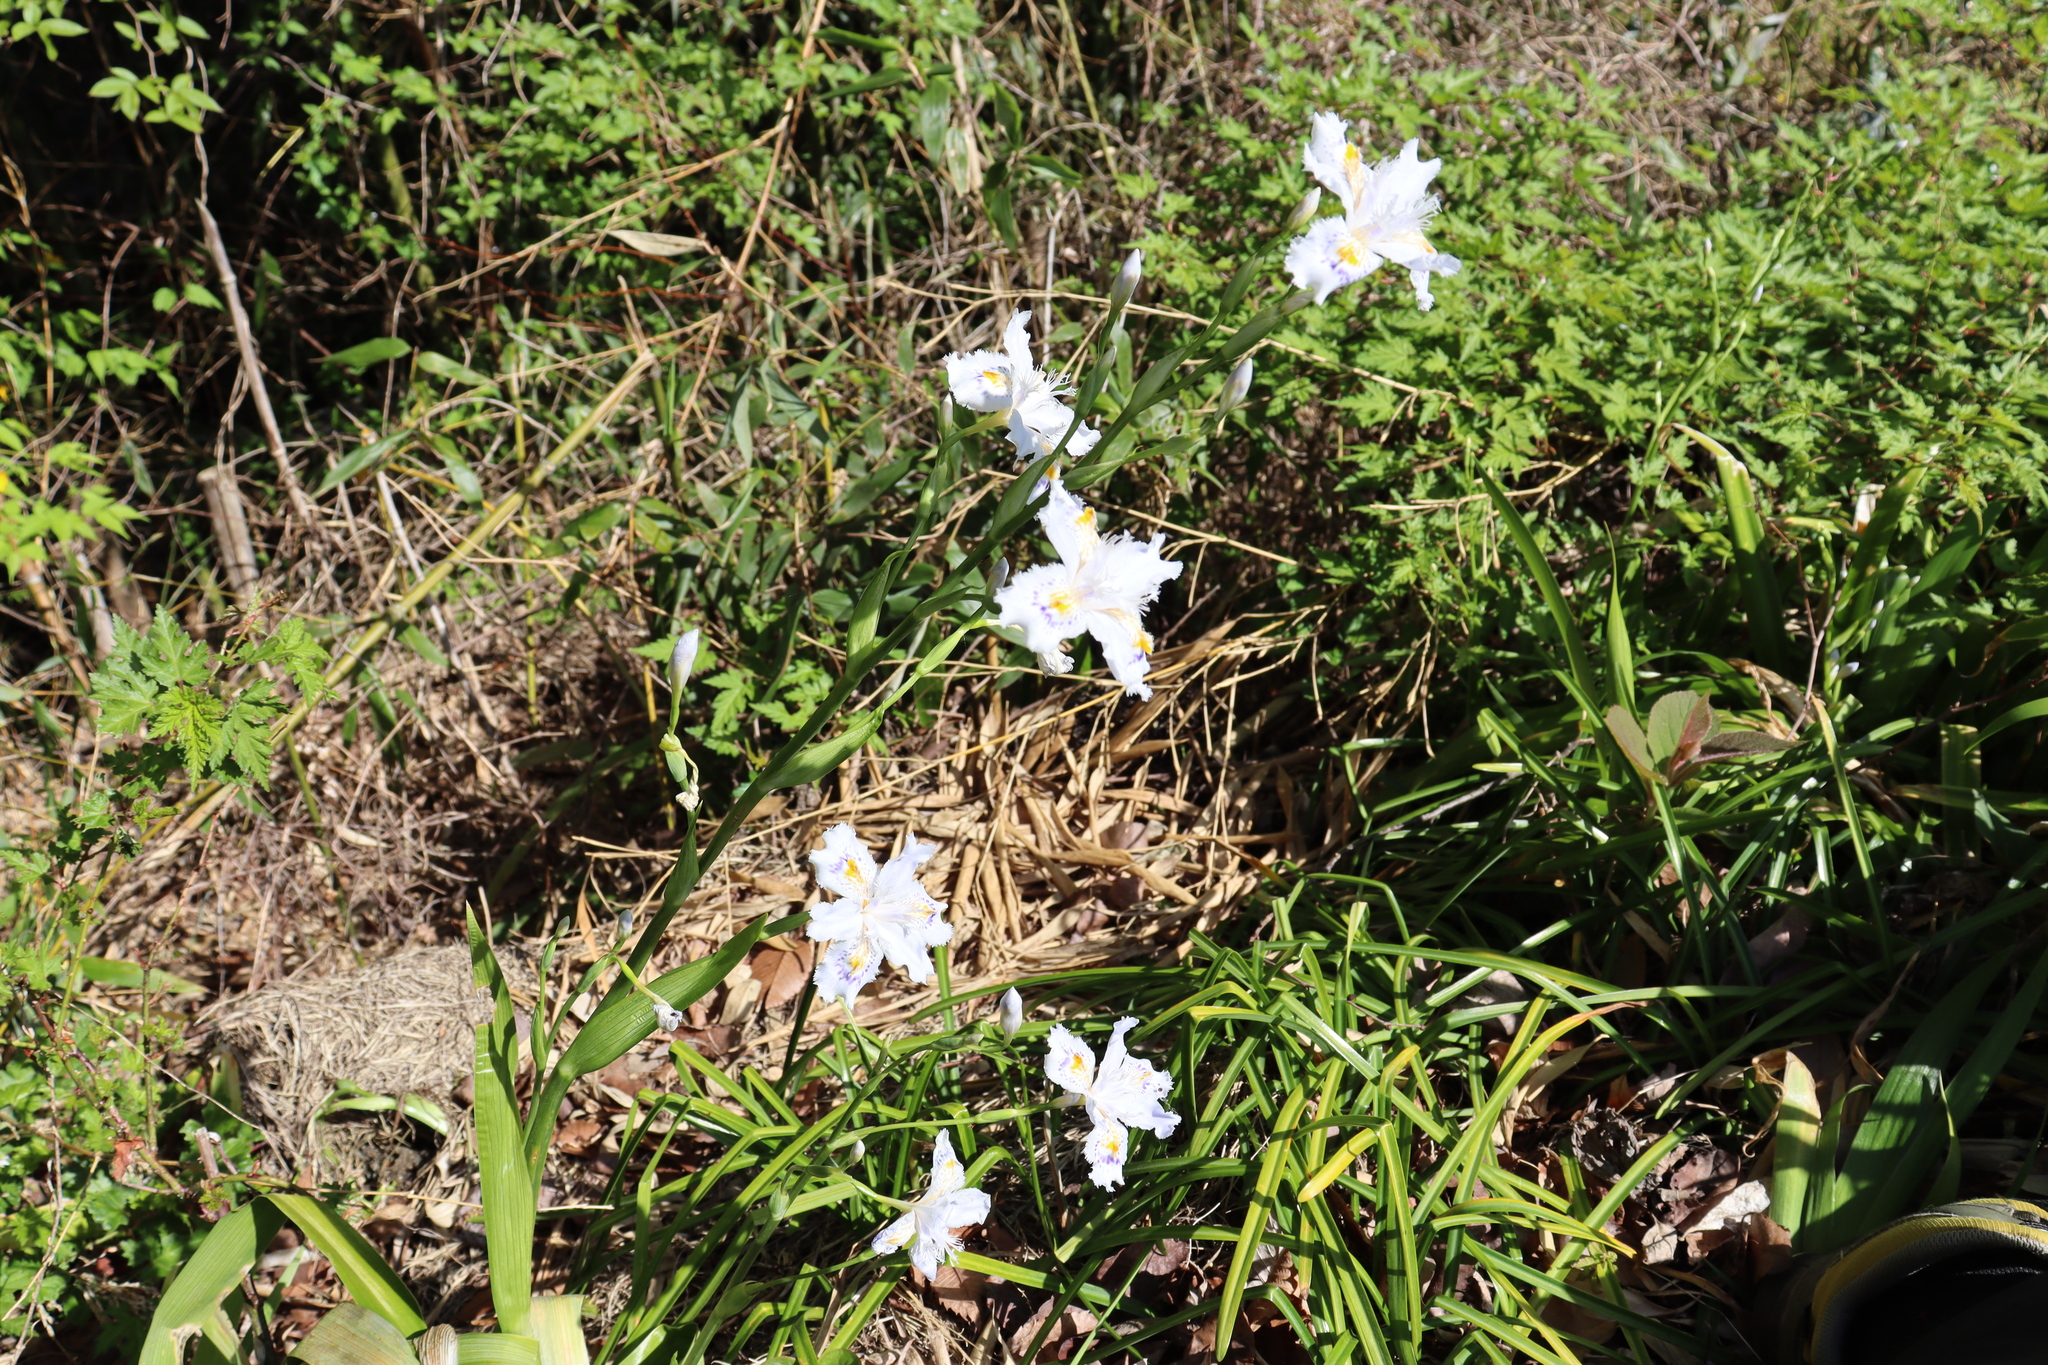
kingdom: Plantae
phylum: Tracheophyta
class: Liliopsida
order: Asparagales
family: Iridaceae
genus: Iris
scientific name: Iris japonica
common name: Butterfly-flower
